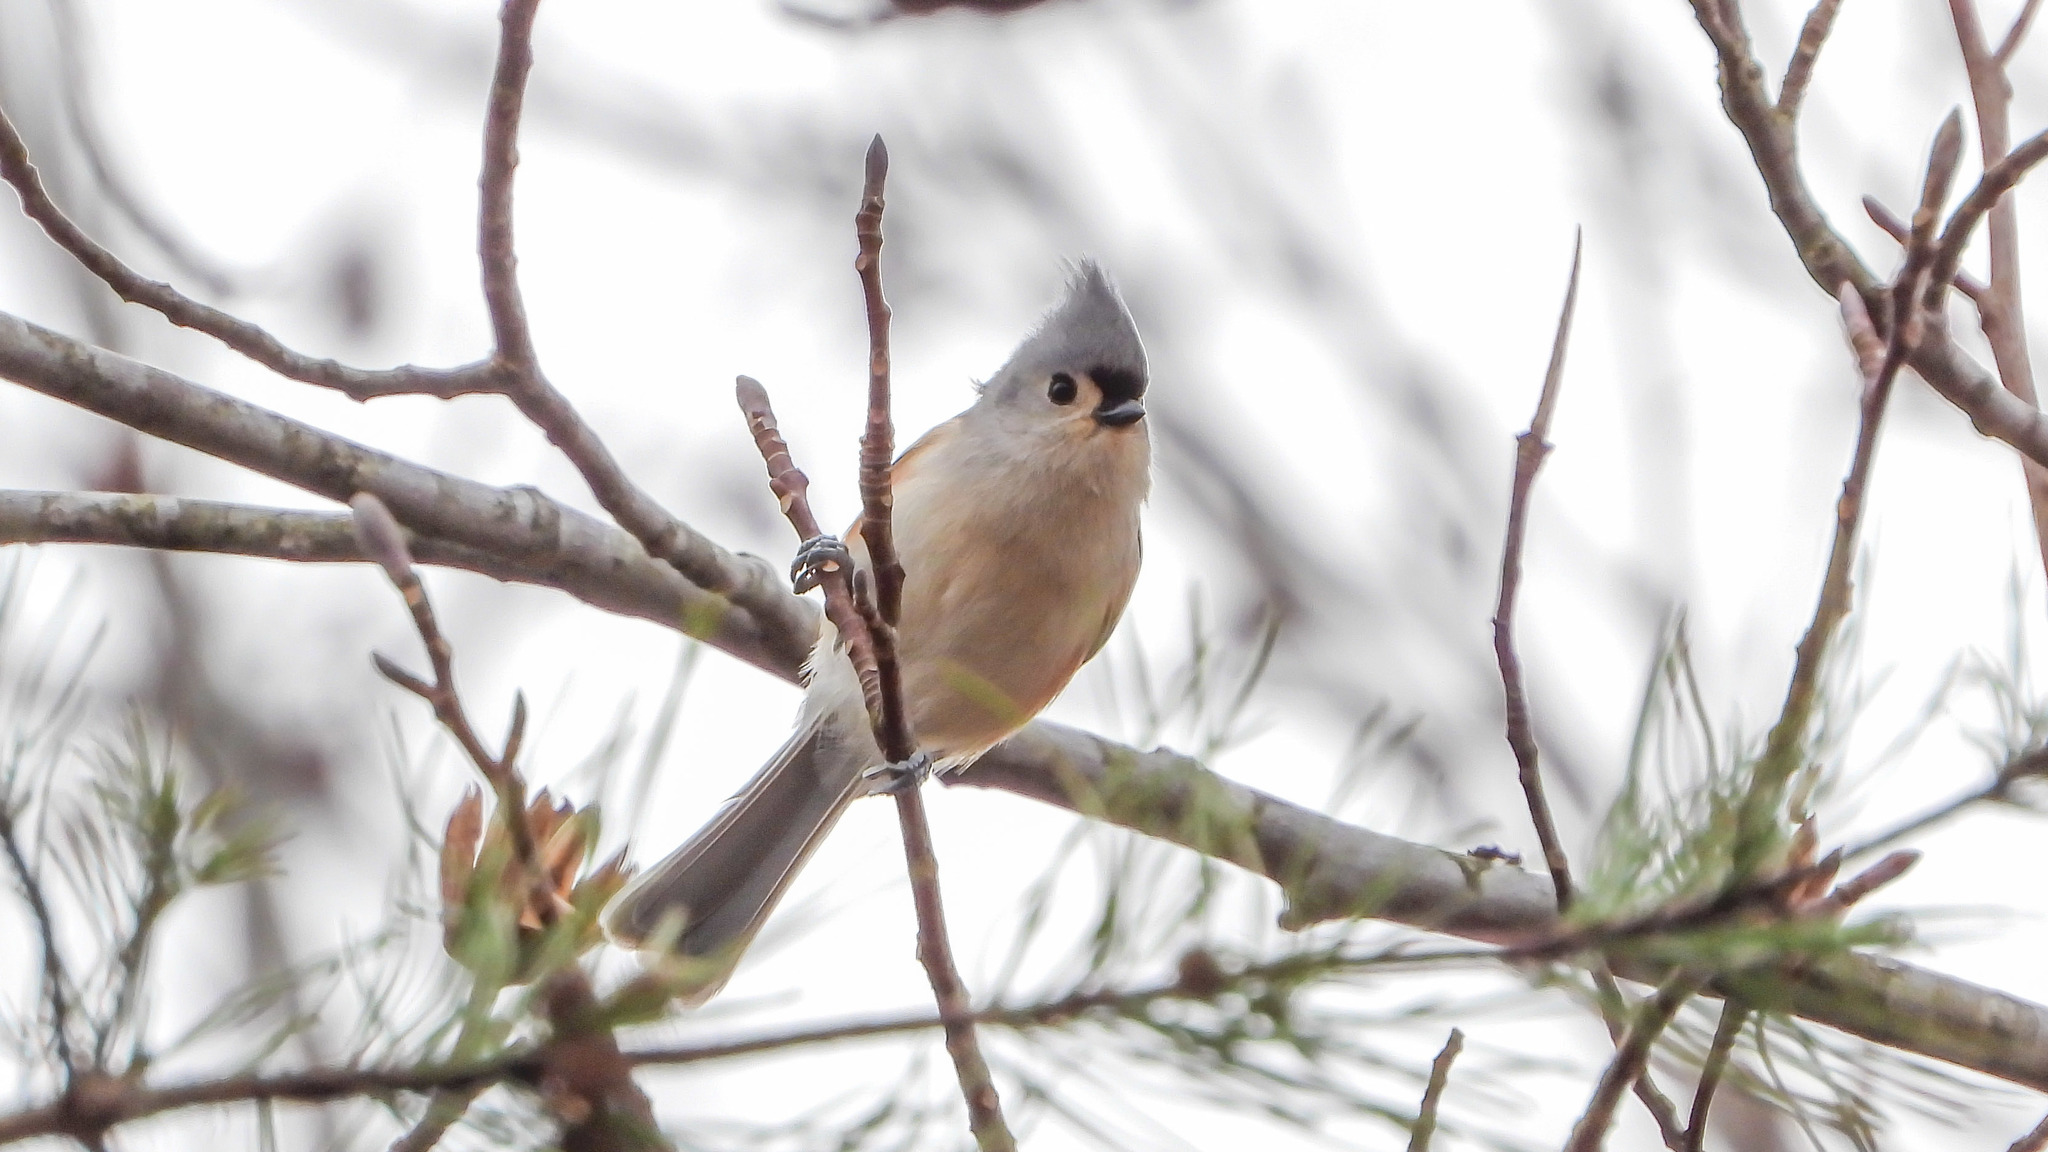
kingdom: Animalia
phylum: Chordata
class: Aves
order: Passeriformes
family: Paridae
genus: Baeolophus
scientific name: Baeolophus bicolor
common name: Tufted titmouse
